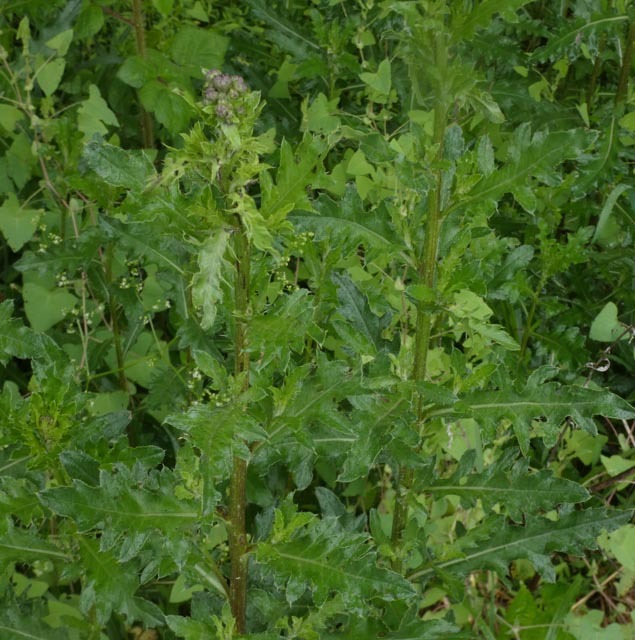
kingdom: Plantae
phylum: Tracheophyta
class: Magnoliopsida
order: Asterales
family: Asteraceae
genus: Cirsium
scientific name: Cirsium arvense
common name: Creeping thistle
